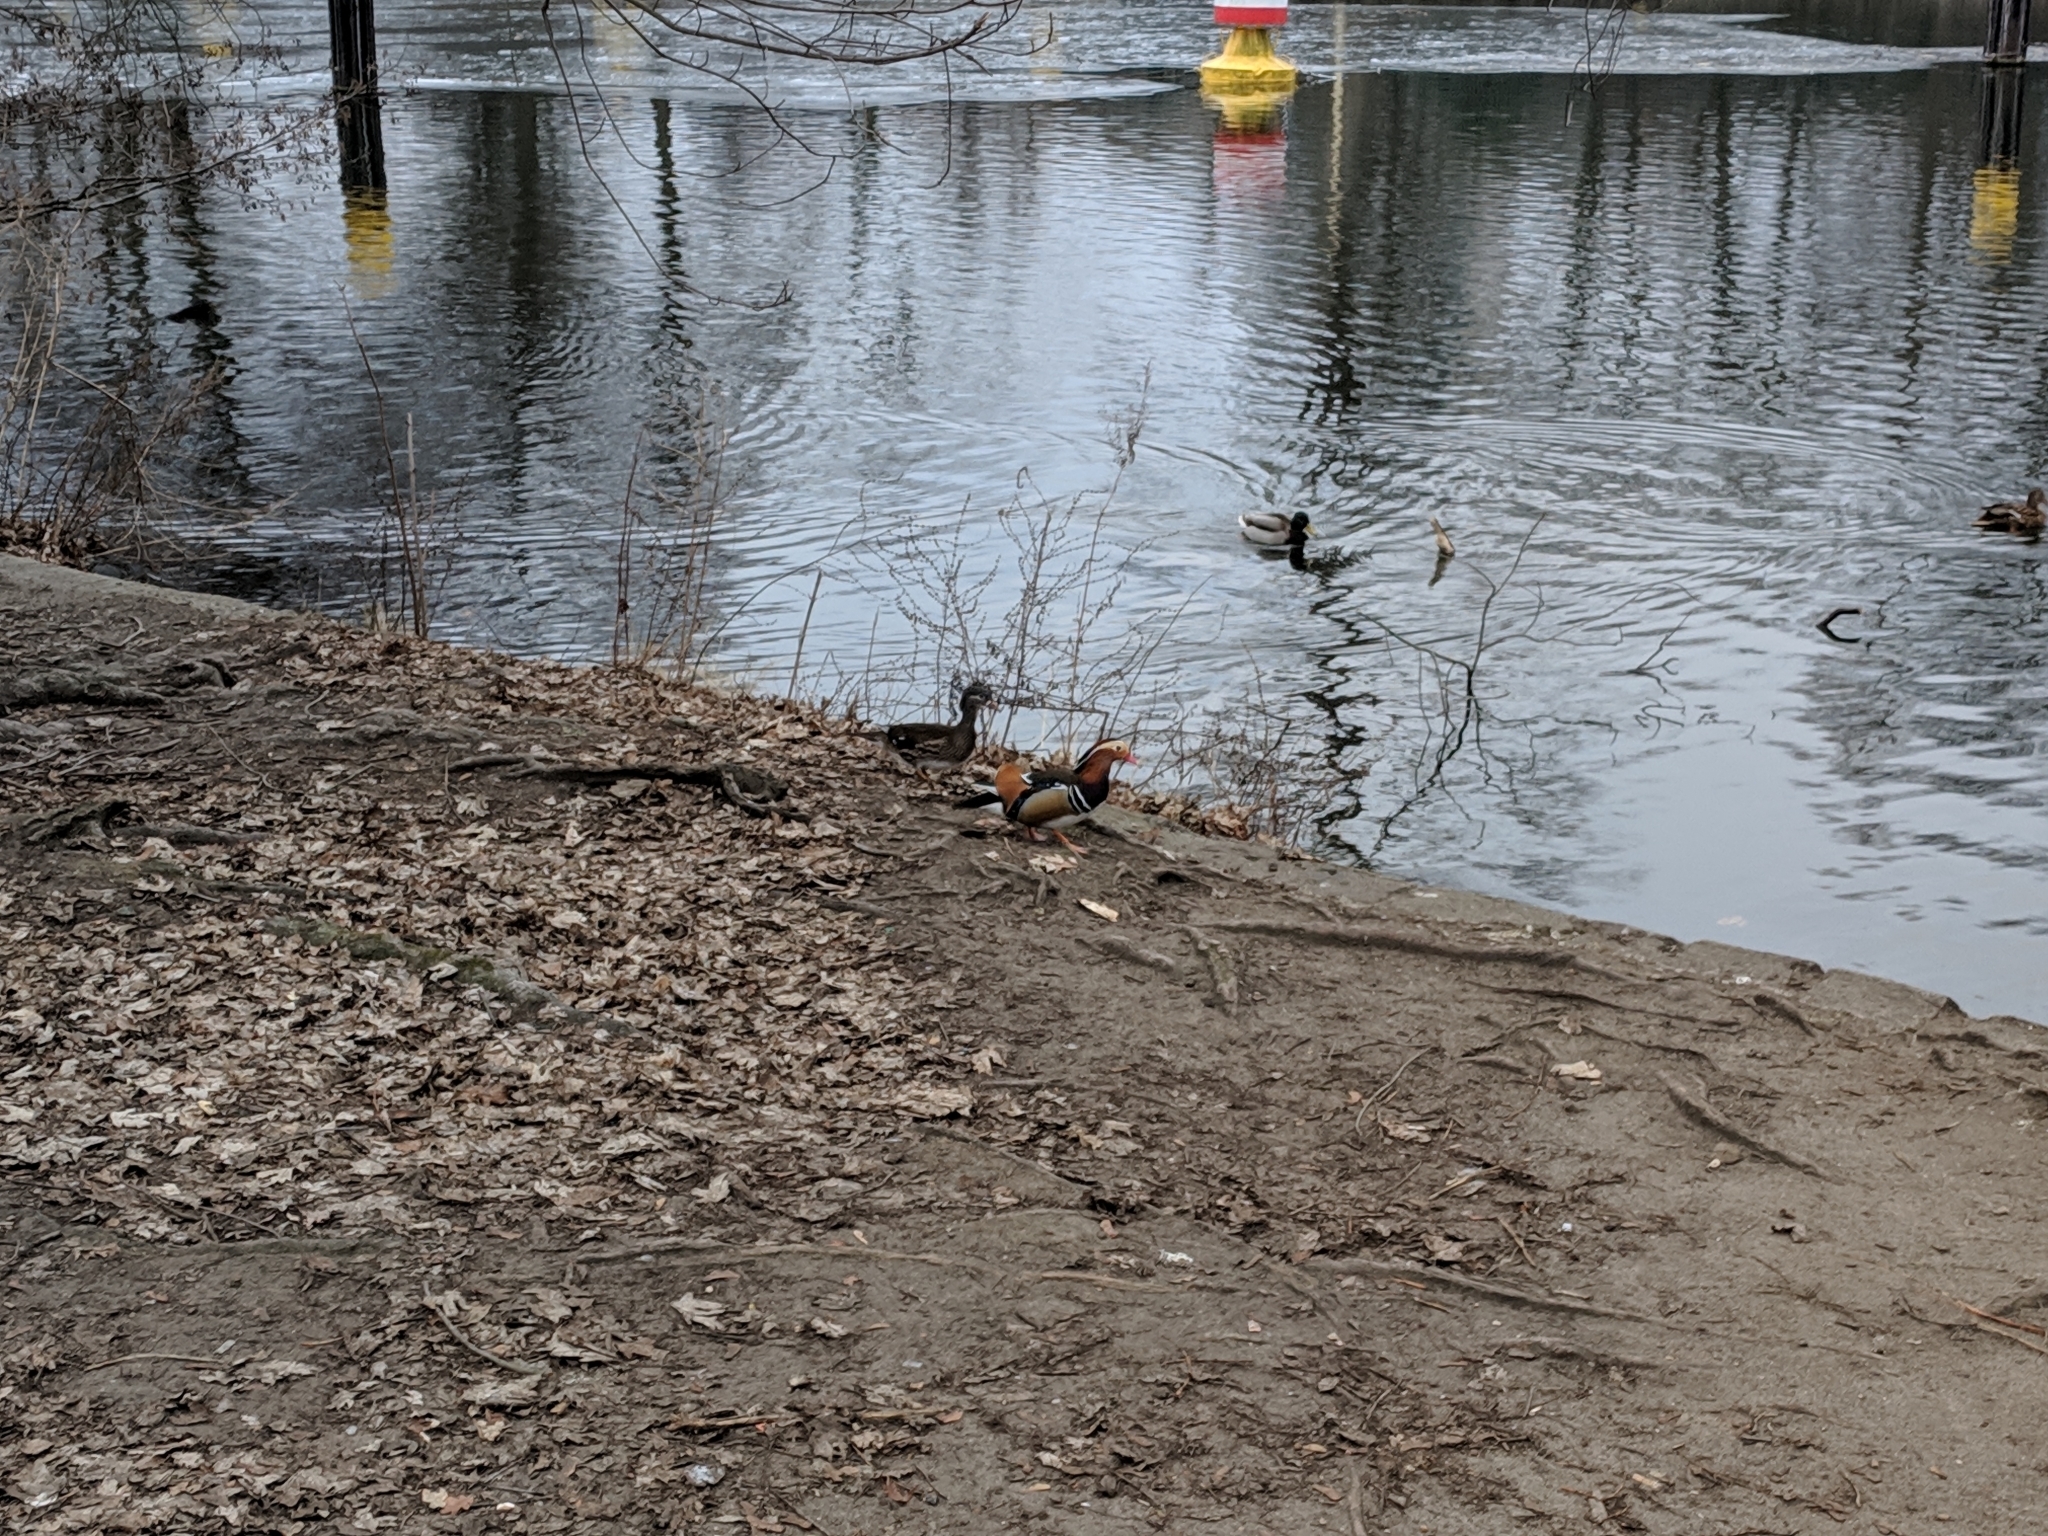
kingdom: Animalia
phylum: Chordata
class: Aves
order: Anseriformes
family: Anatidae
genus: Aix
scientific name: Aix galericulata
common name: Mandarin duck
